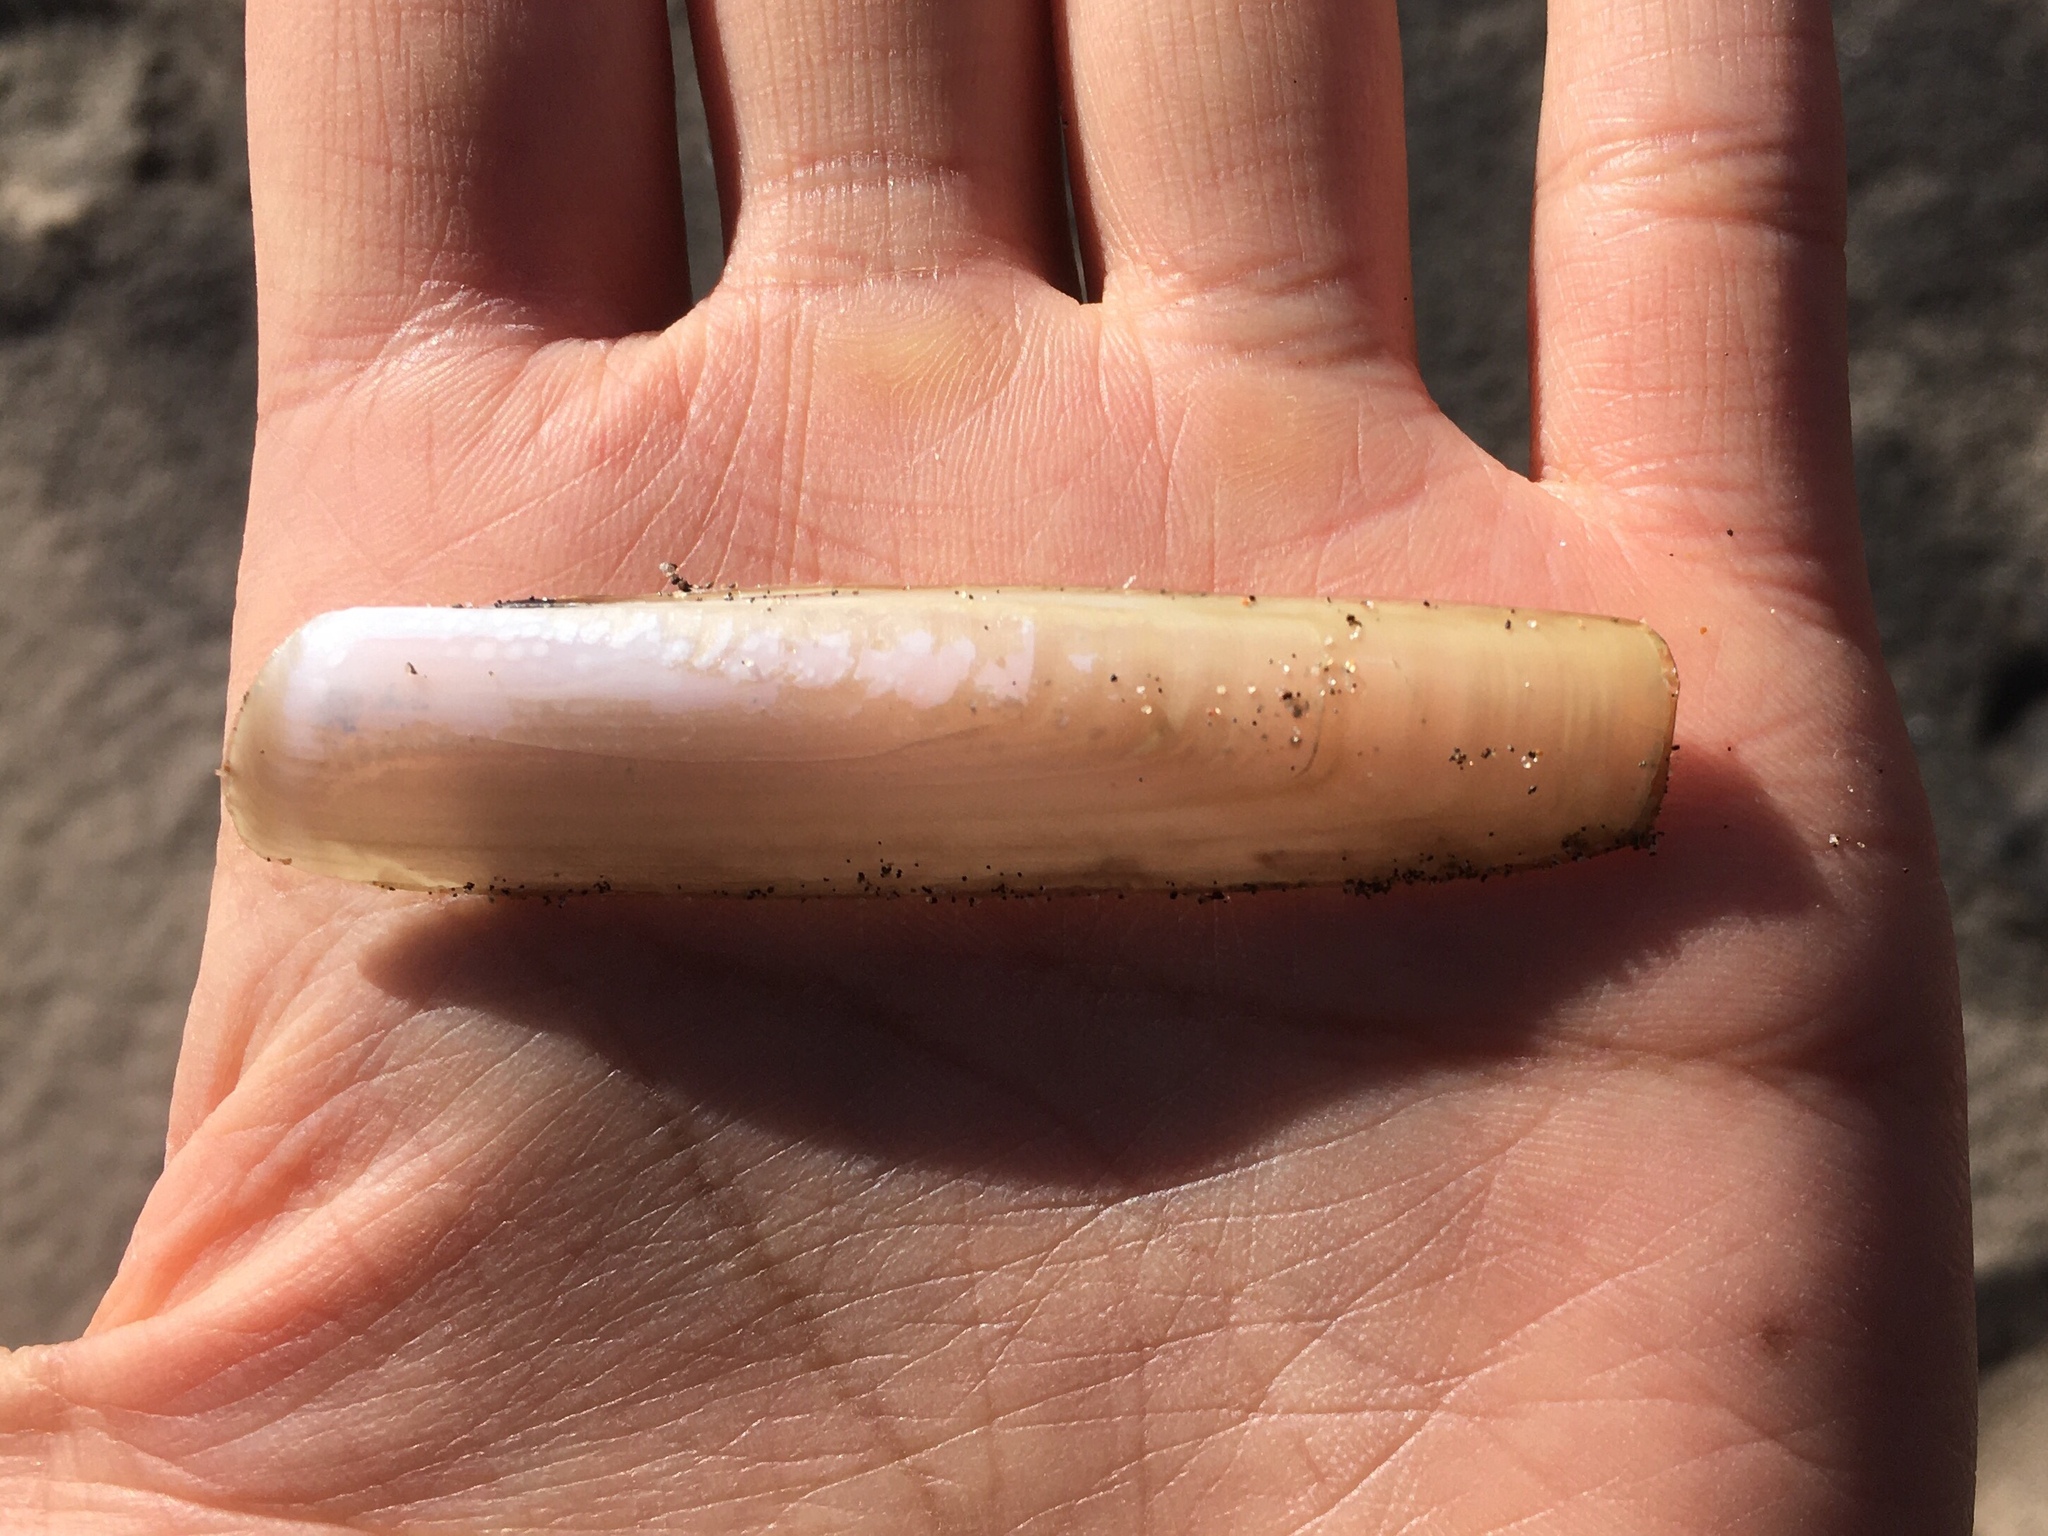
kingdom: Animalia
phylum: Mollusca
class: Bivalvia
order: Adapedonta
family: Solenidae
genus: Solen
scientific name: Solen thuelchus
